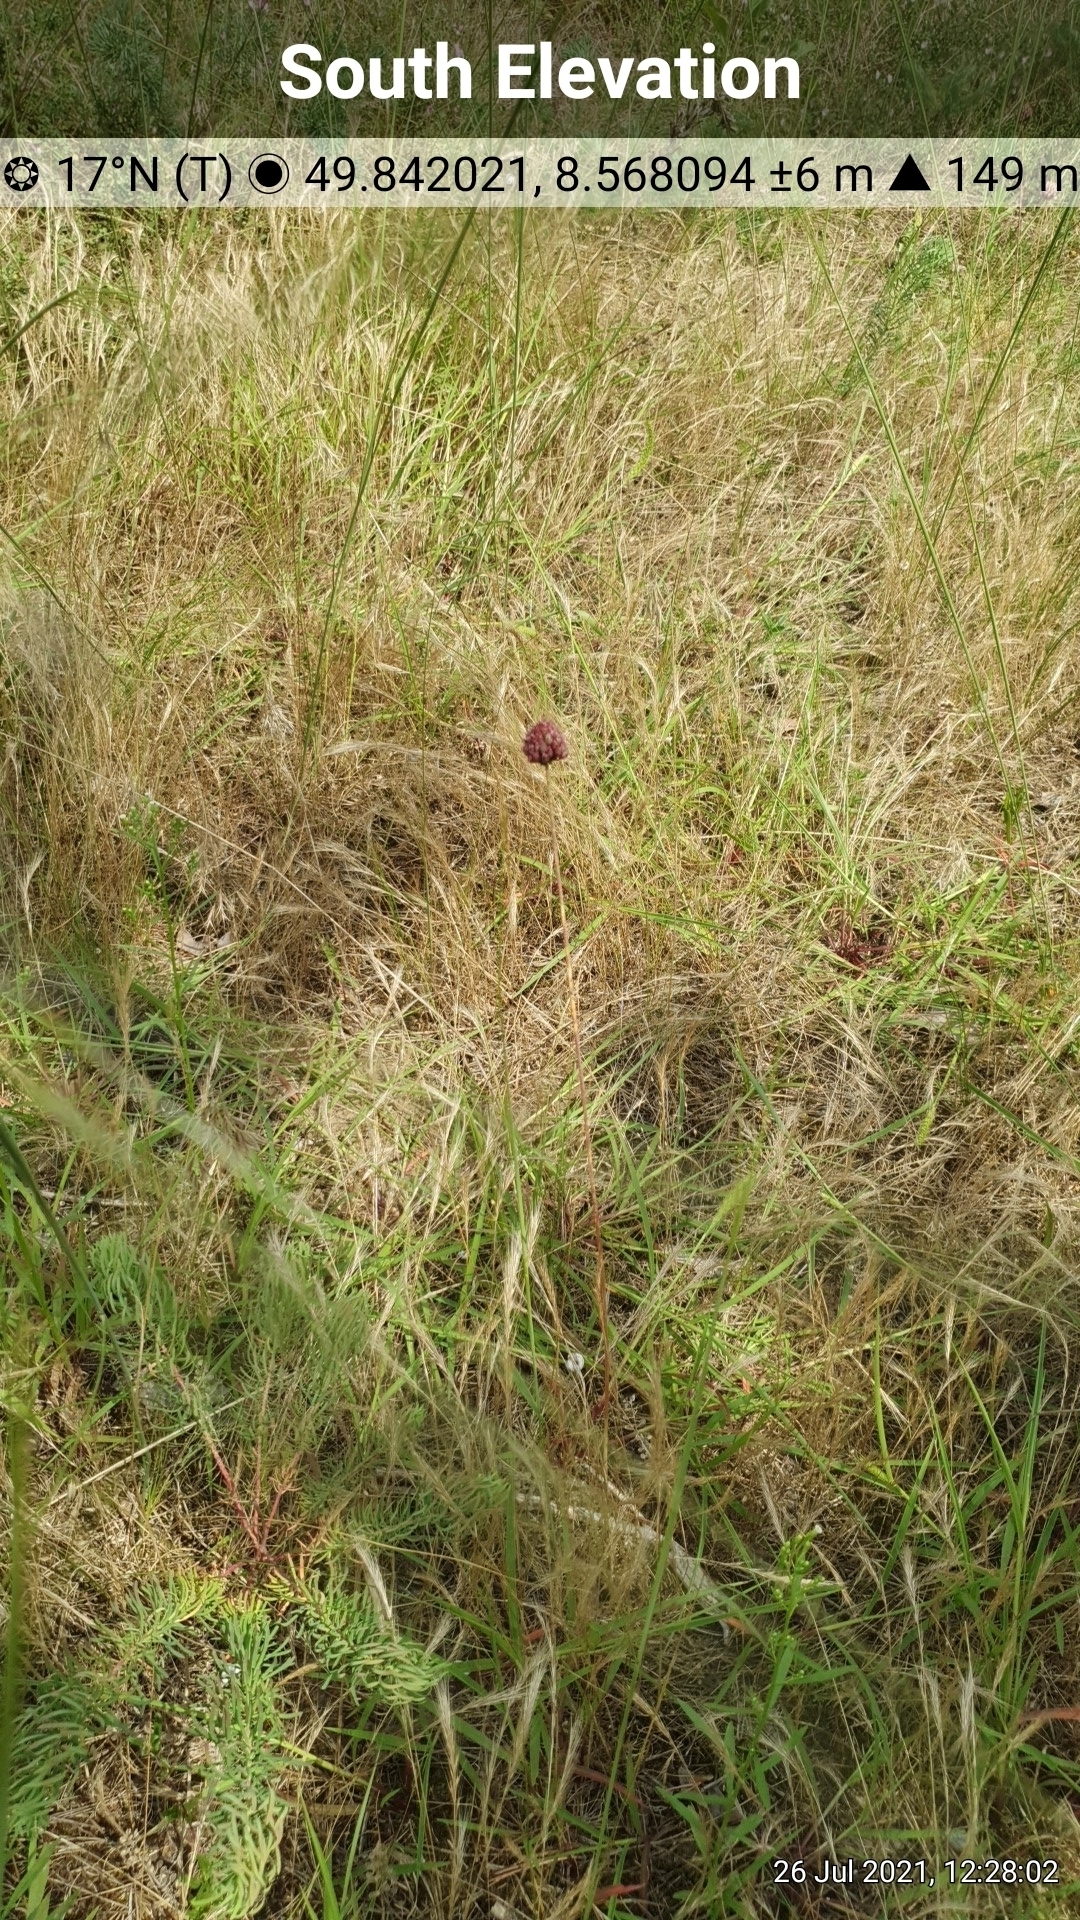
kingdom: Plantae
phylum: Tracheophyta
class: Liliopsida
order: Asparagales
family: Amaryllidaceae
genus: Allium
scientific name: Allium sphaerocephalon
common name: Round-headed leek
